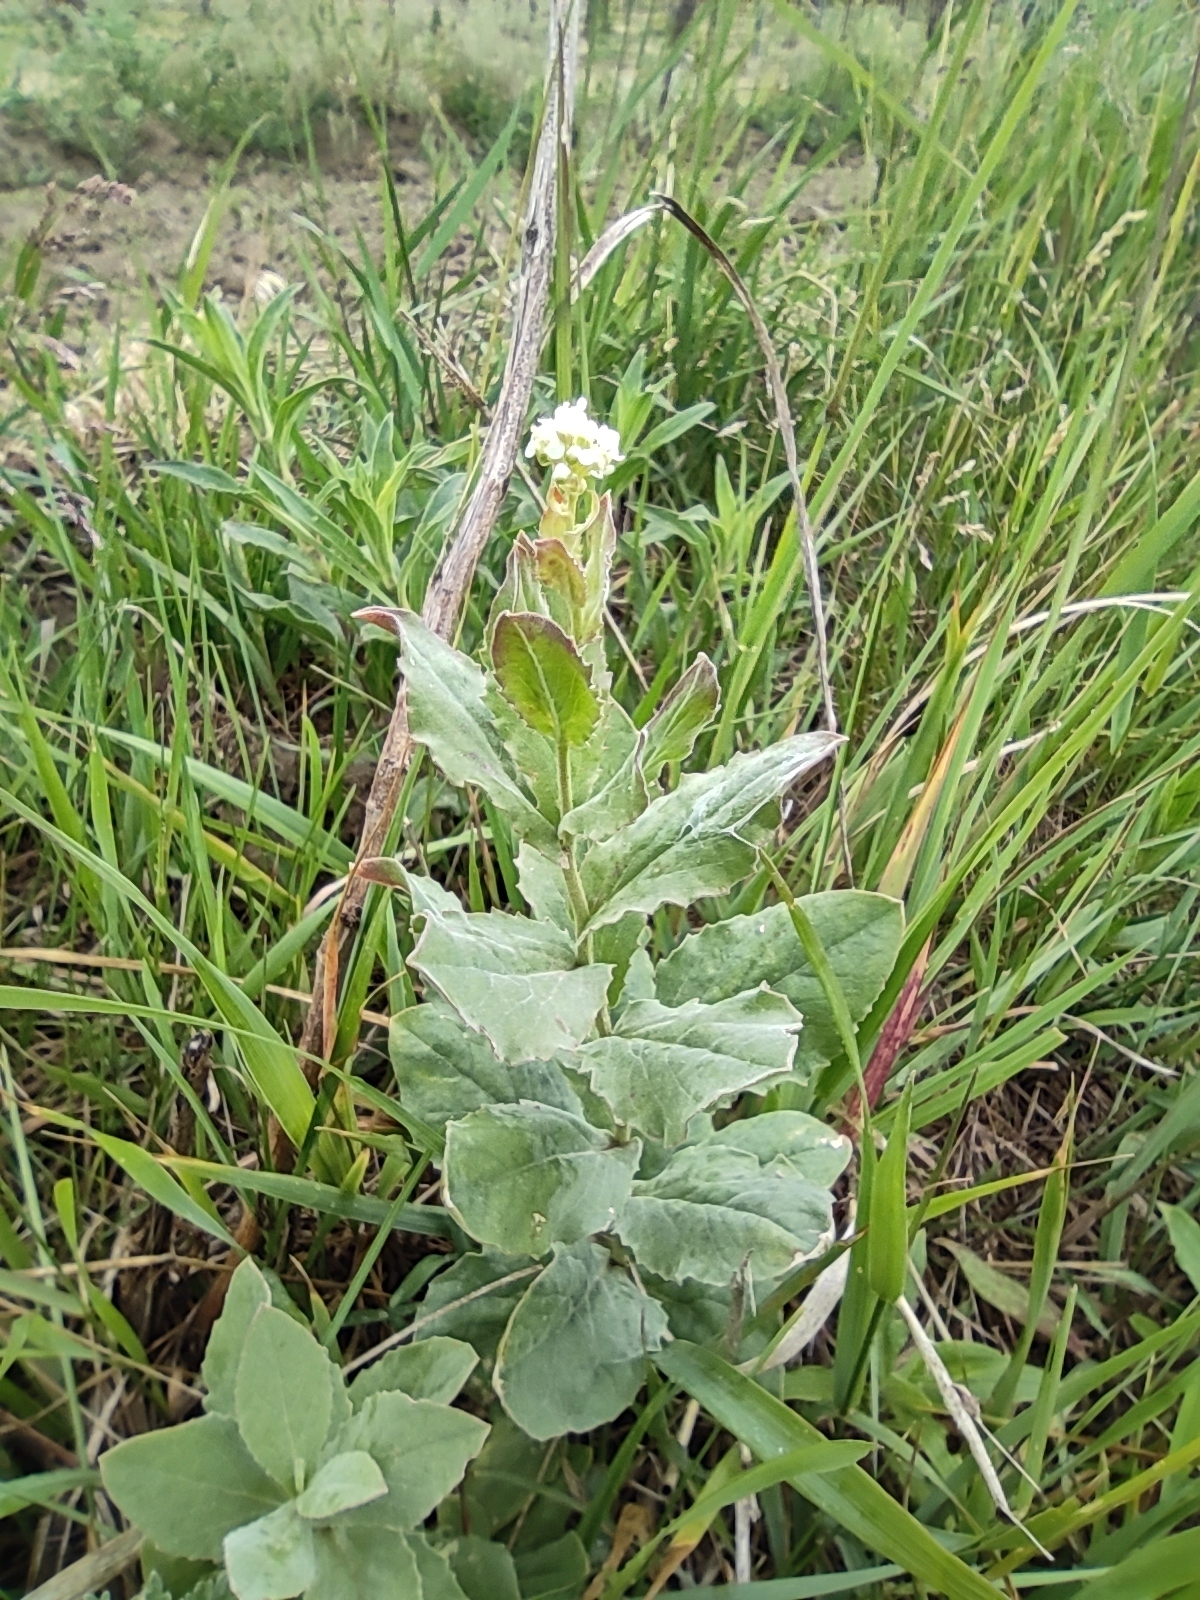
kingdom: Plantae
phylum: Tracheophyta
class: Magnoliopsida
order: Brassicales
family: Brassicaceae
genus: Lepidium
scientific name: Lepidium draba
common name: Hoary cress
